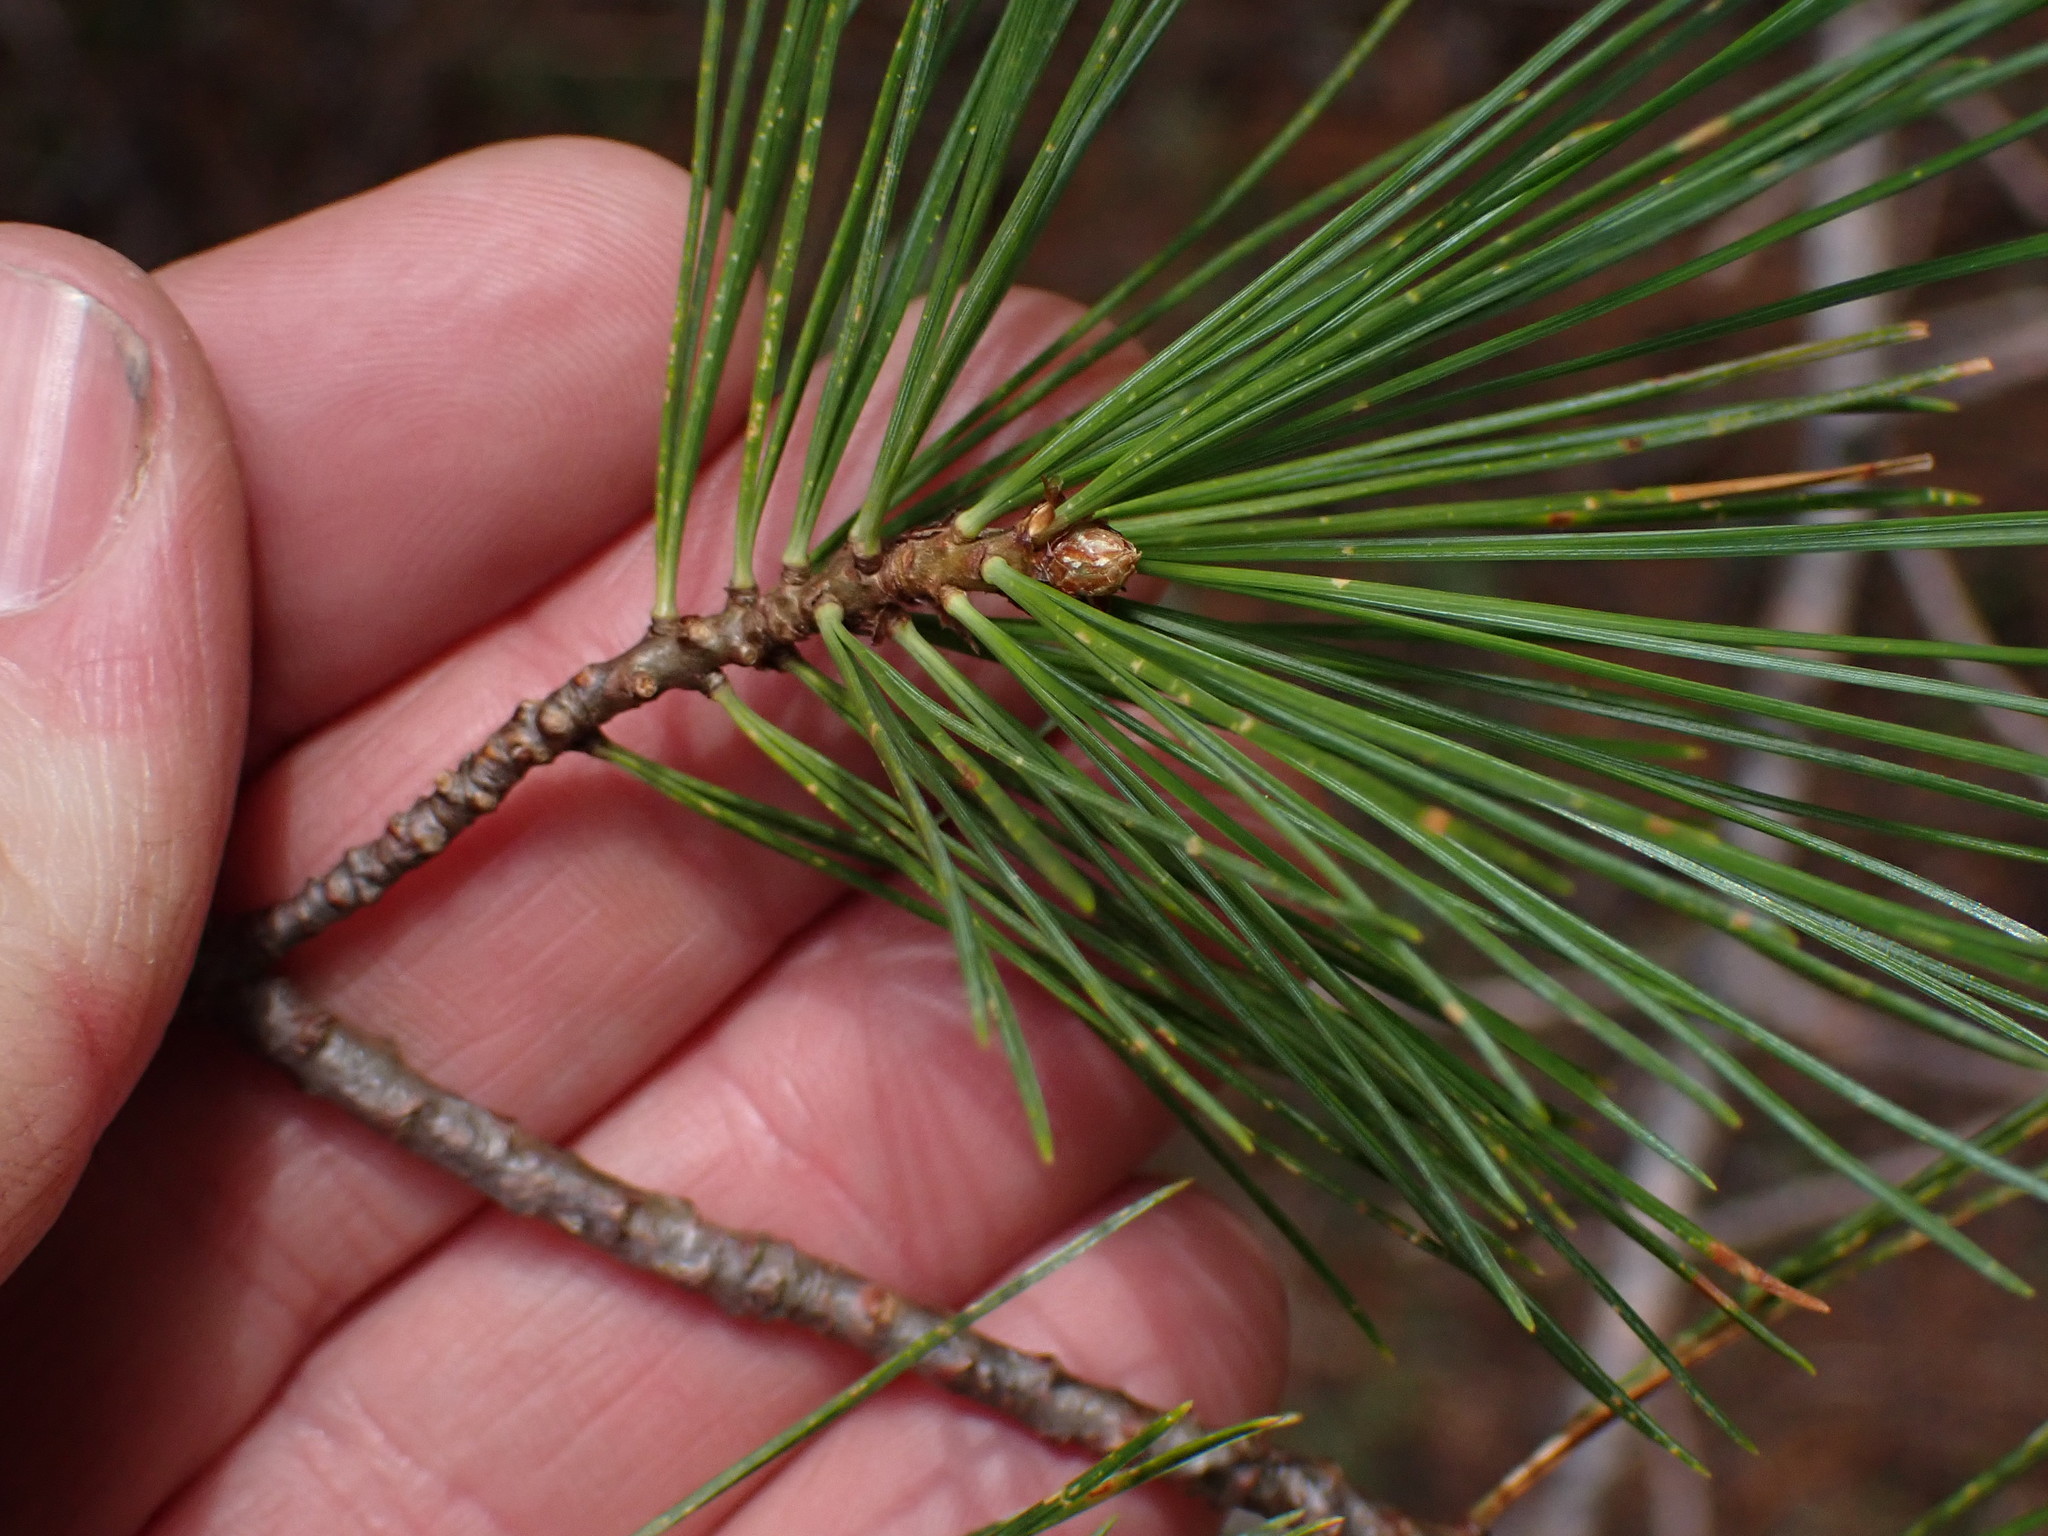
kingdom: Plantae
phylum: Tracheophyta
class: Pinopsida
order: Pinales
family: Pinaceae
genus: Pinus
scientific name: Pinus contorta
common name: Lodgepole pine
